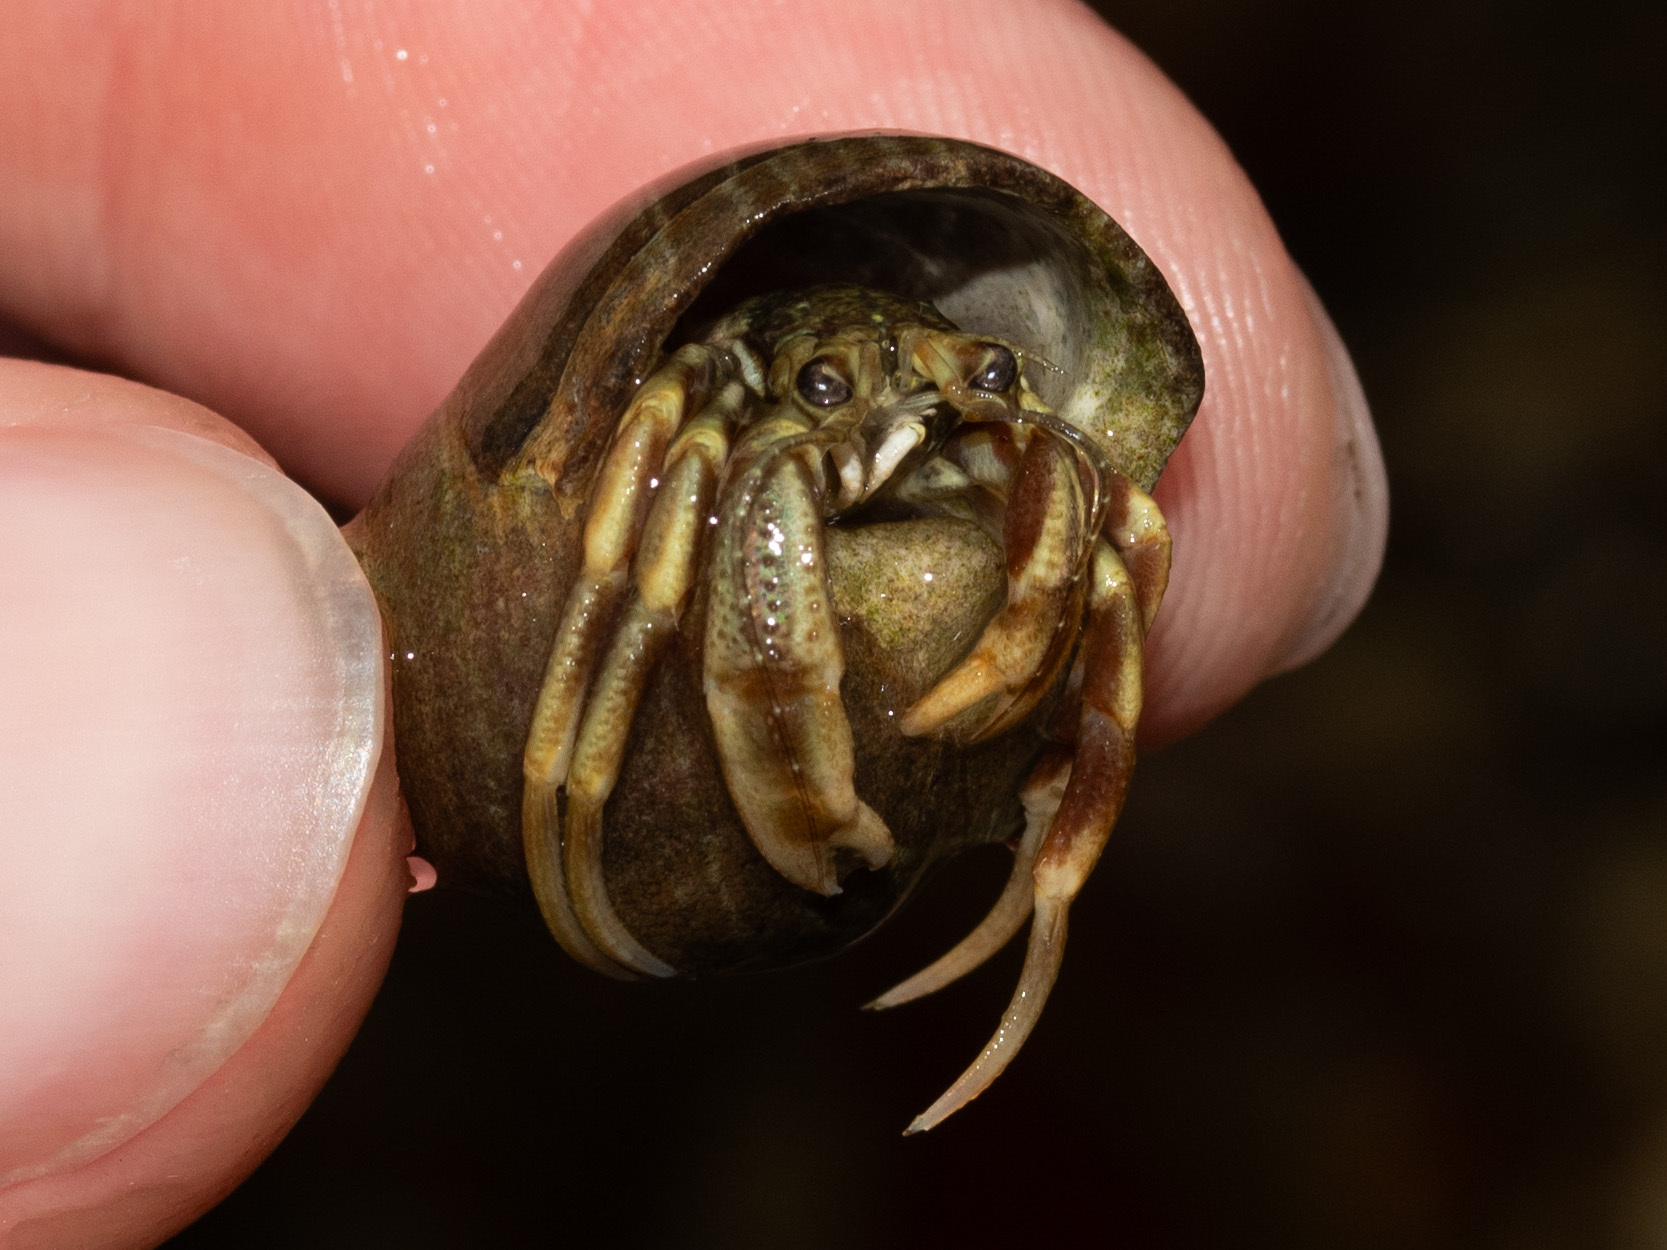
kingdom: Animalia
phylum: Arthropoda
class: Malacostraca
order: Decapoda
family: Paguridae
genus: Pagurus
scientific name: Pagurus longicarpus
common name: Long-armed hermit crab
